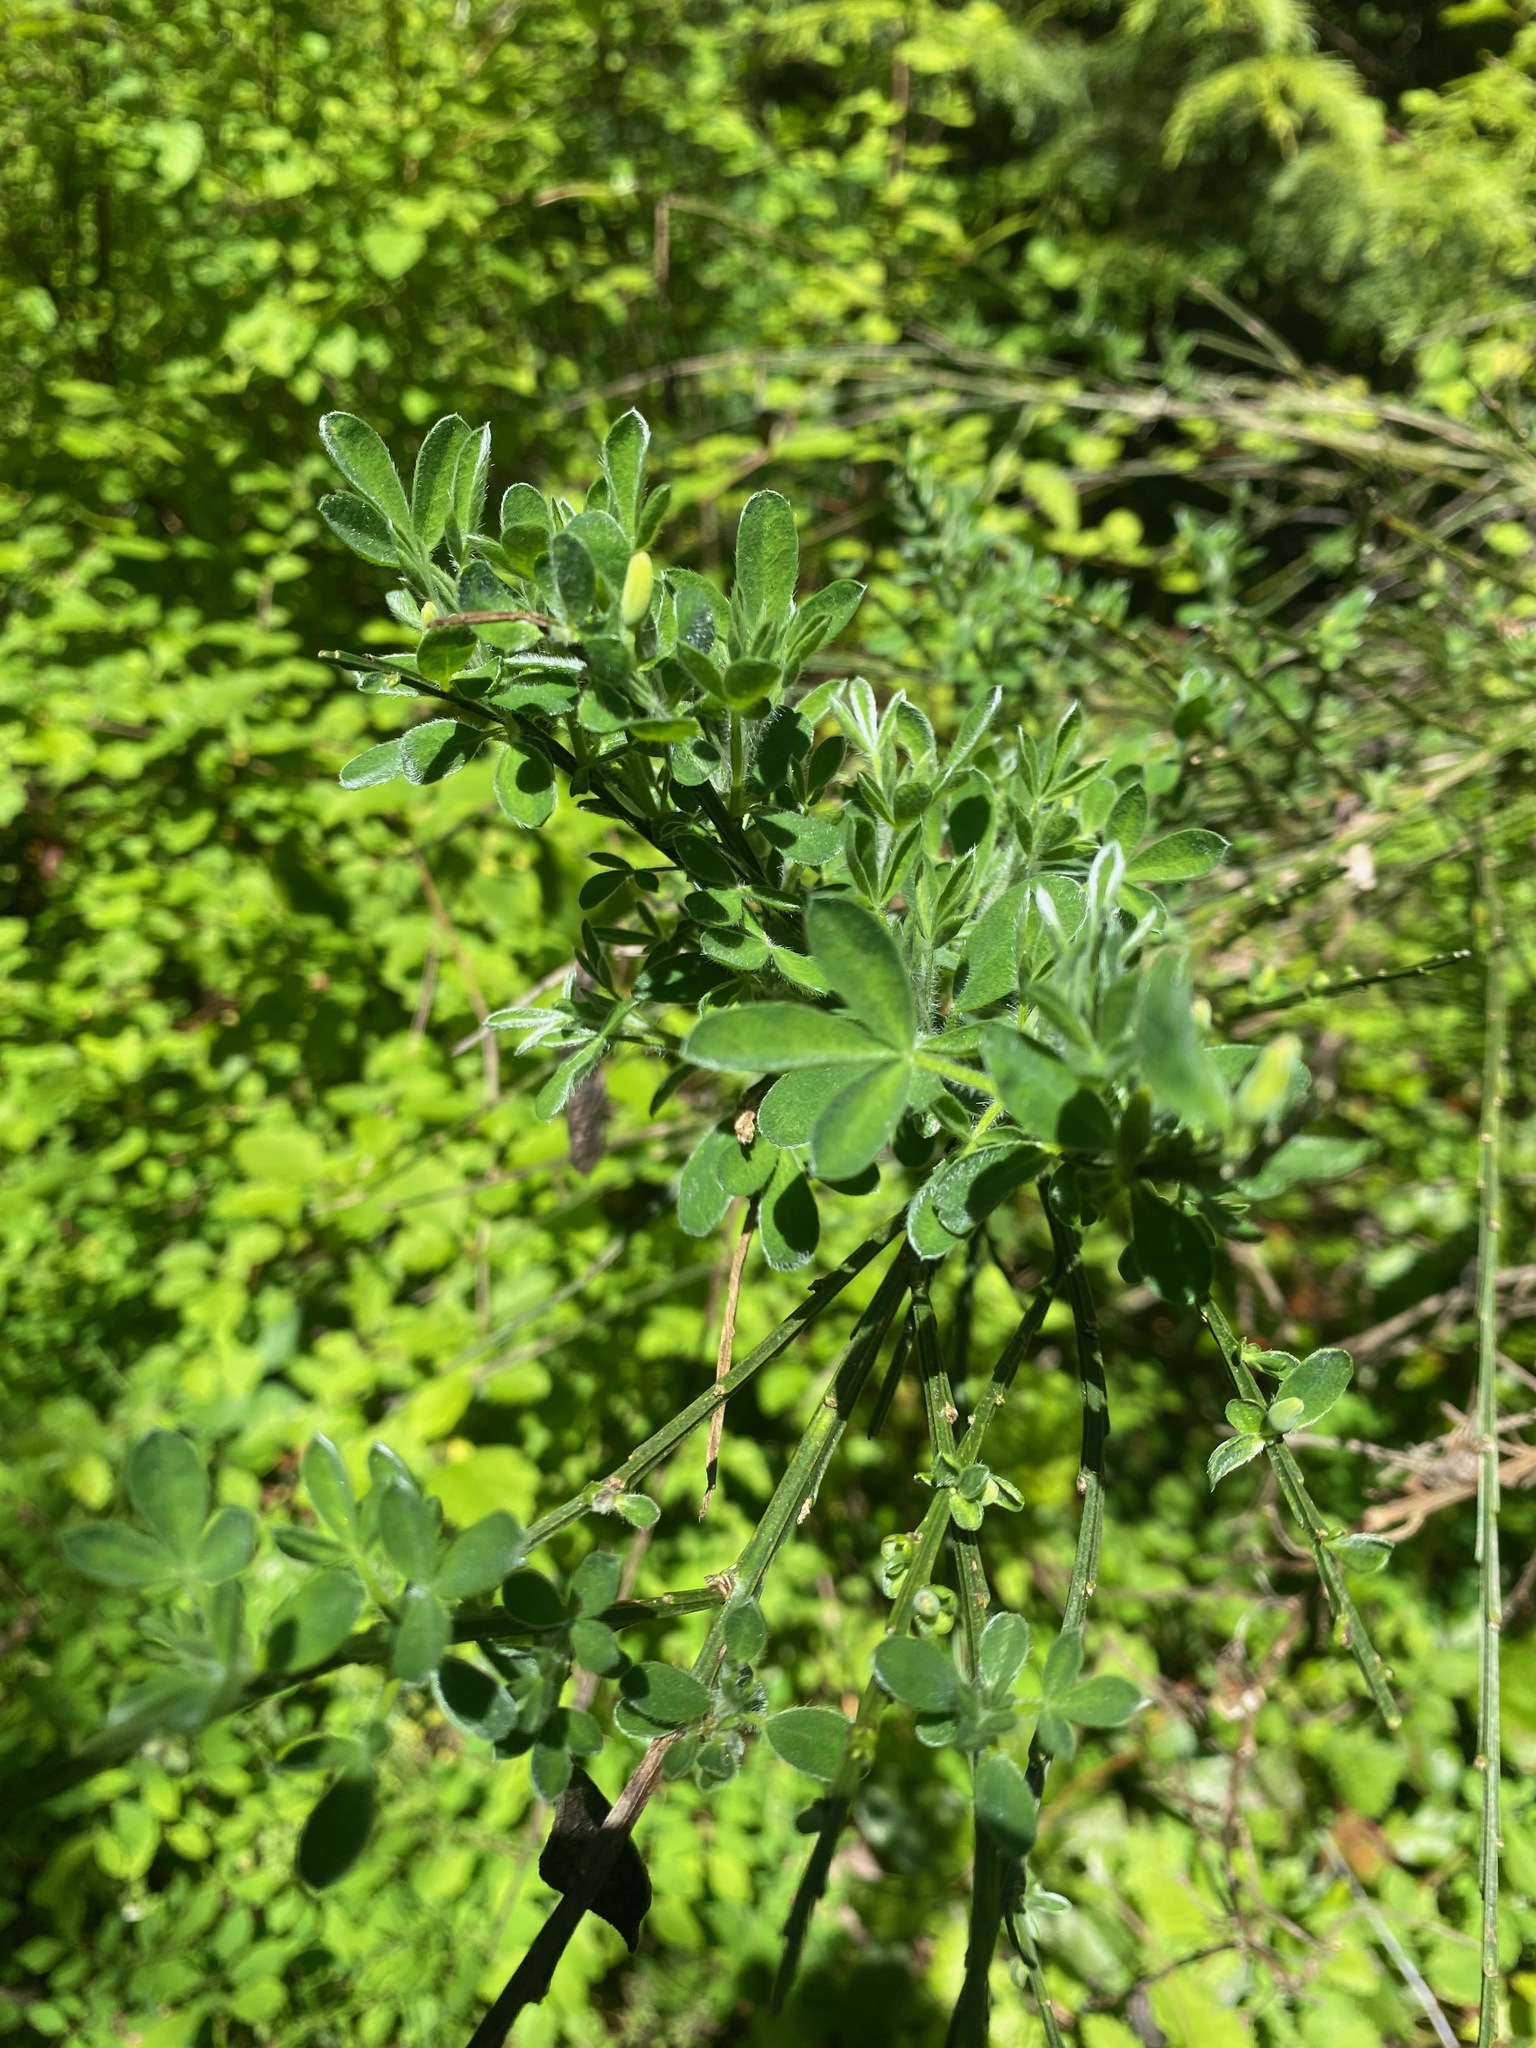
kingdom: Plantae
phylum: Tracheophyta
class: Magnoliopsida
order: Fabales
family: Fabaceae
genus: Cytisus
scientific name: Cytisus scoparius
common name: Scotch broom
